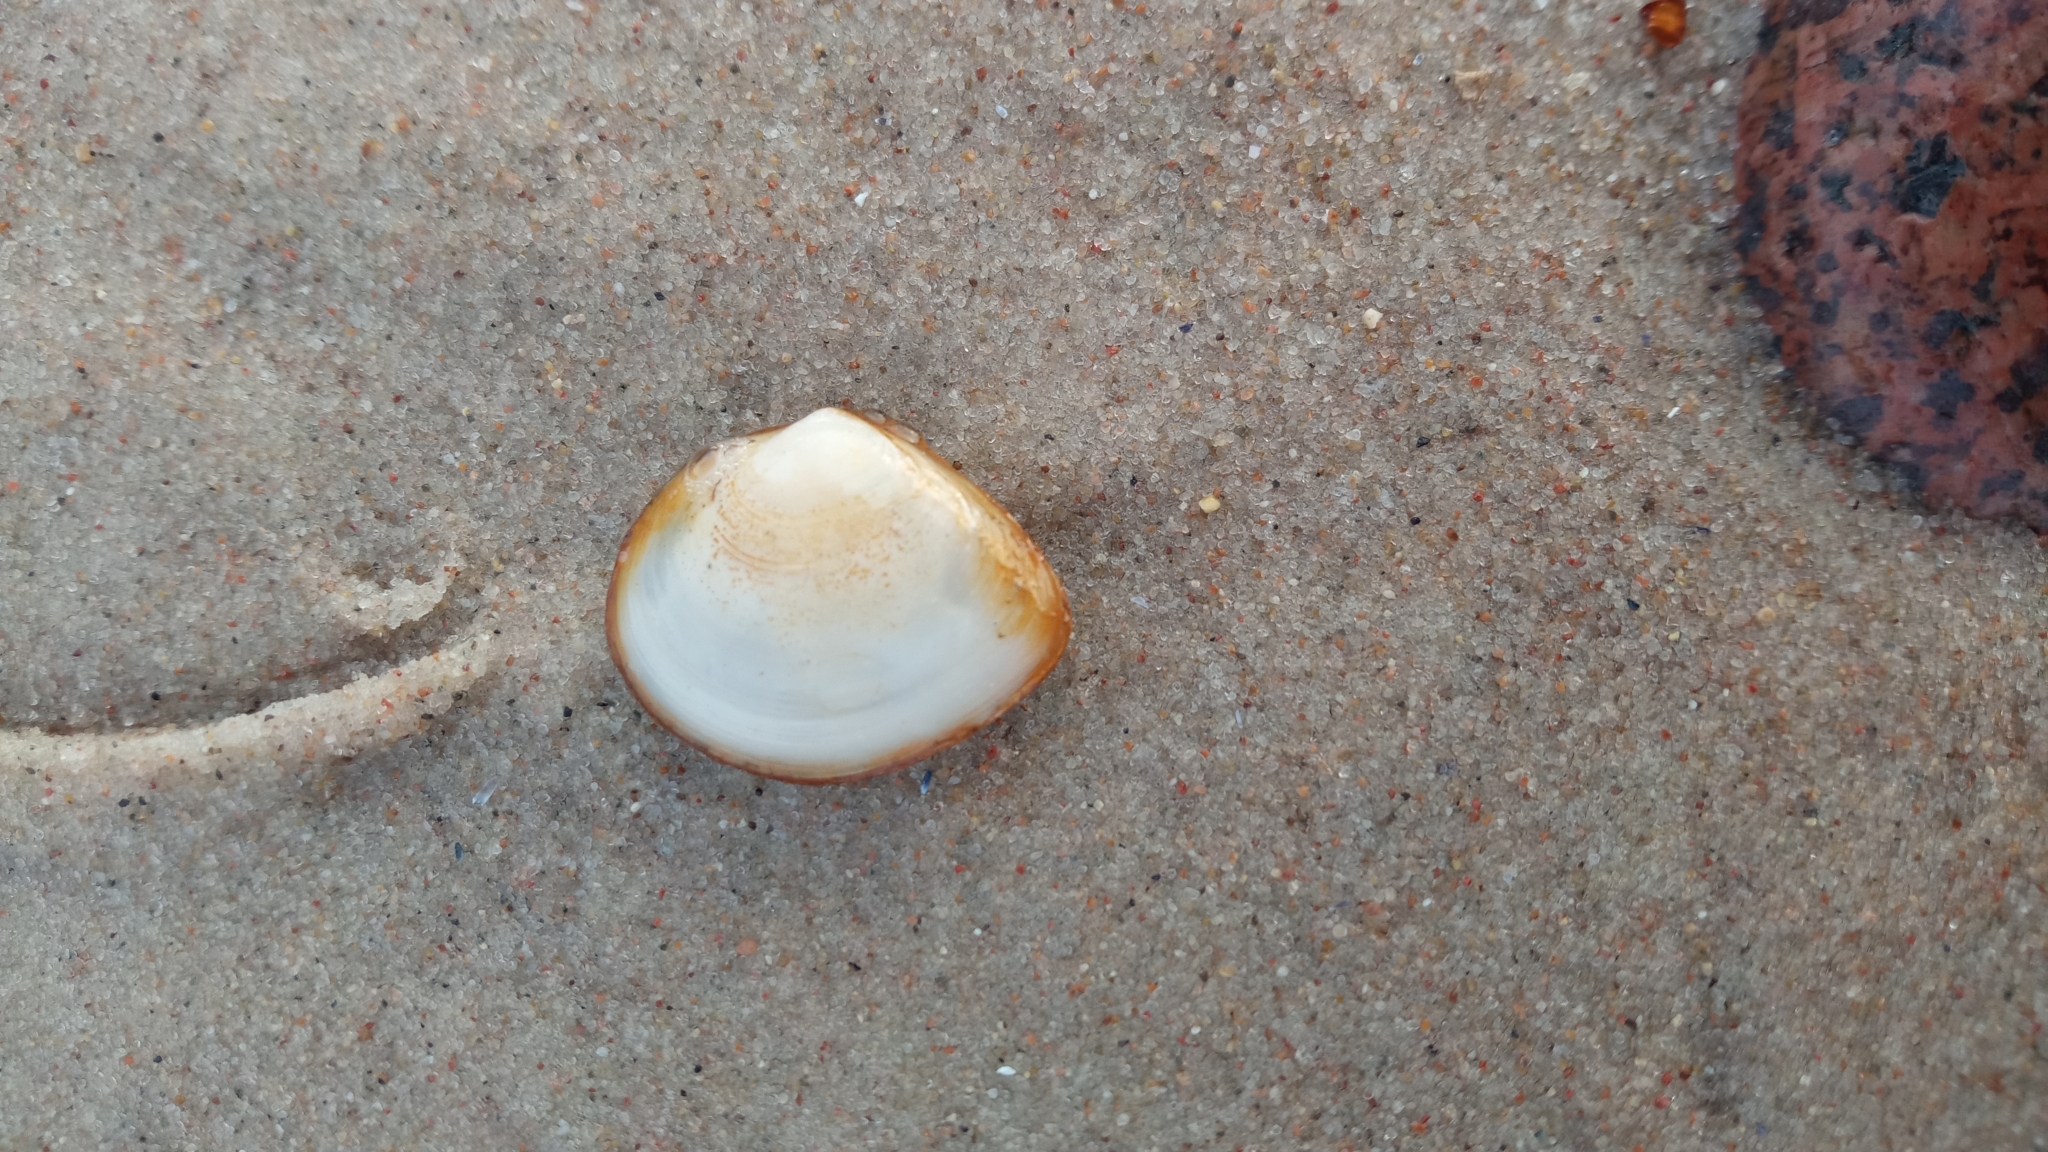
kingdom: Animalia
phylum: Mollusca
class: Bivalvia
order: Cardiida
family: Tellinidae
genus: Macoma
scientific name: Macoma balthica
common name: Baltic tellin
